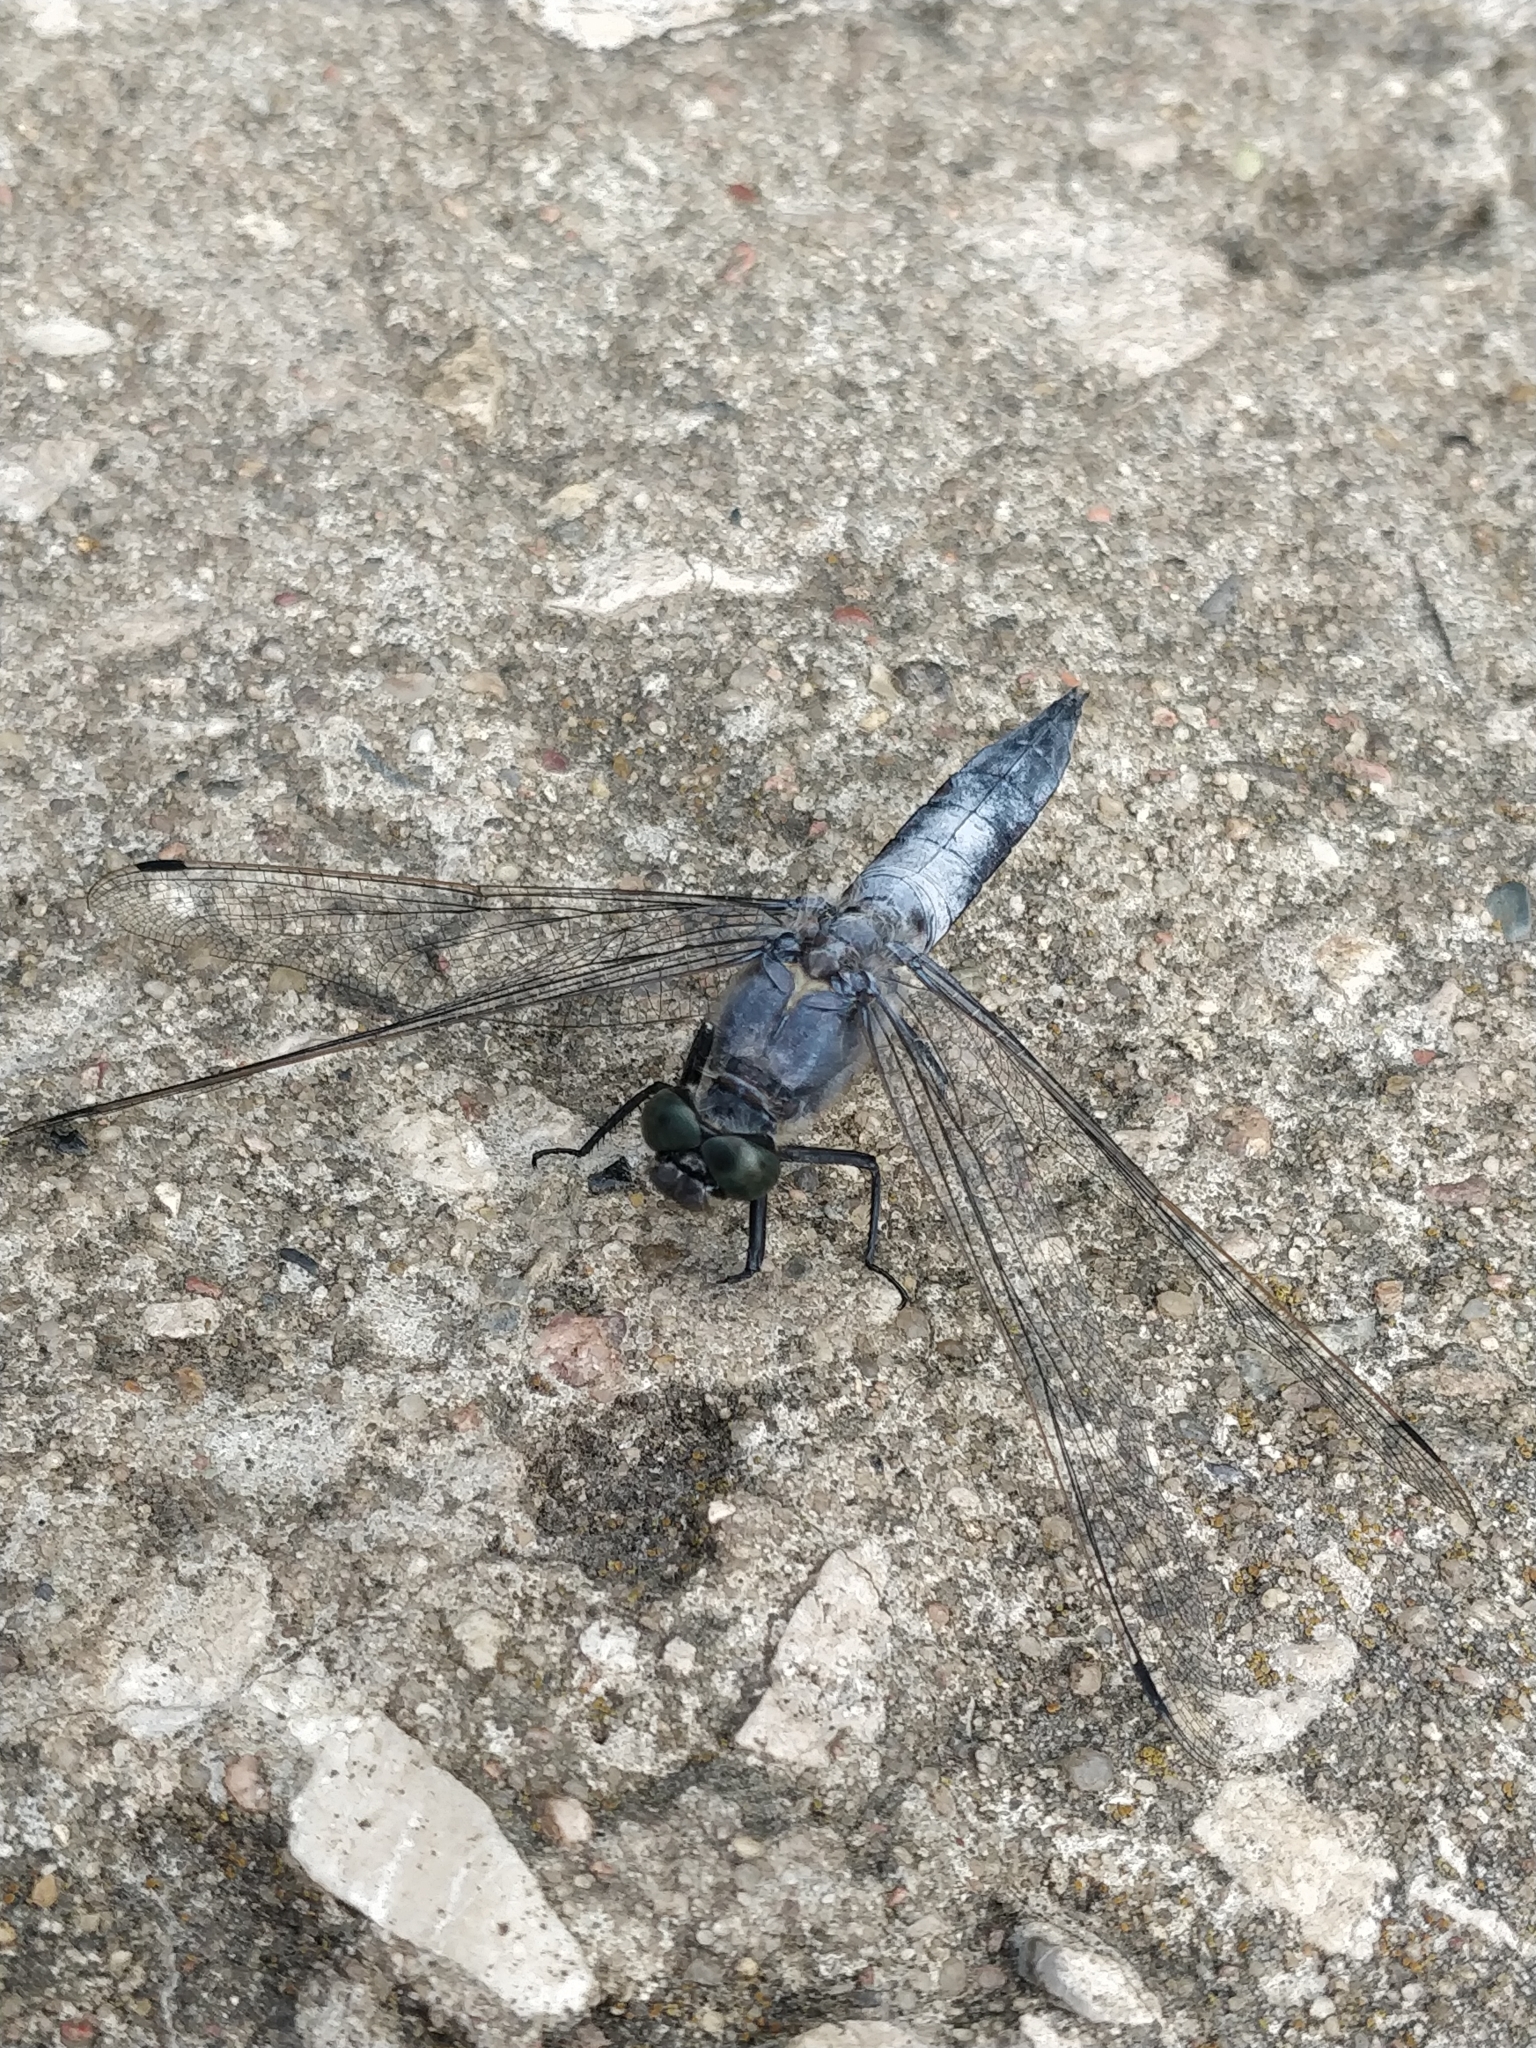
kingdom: Animalia
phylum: Arthropoda
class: Insecta
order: Odonata
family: Libellulidae
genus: Orthetrum
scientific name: Orthetrum cancellatum
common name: Black-tailed skimmer
